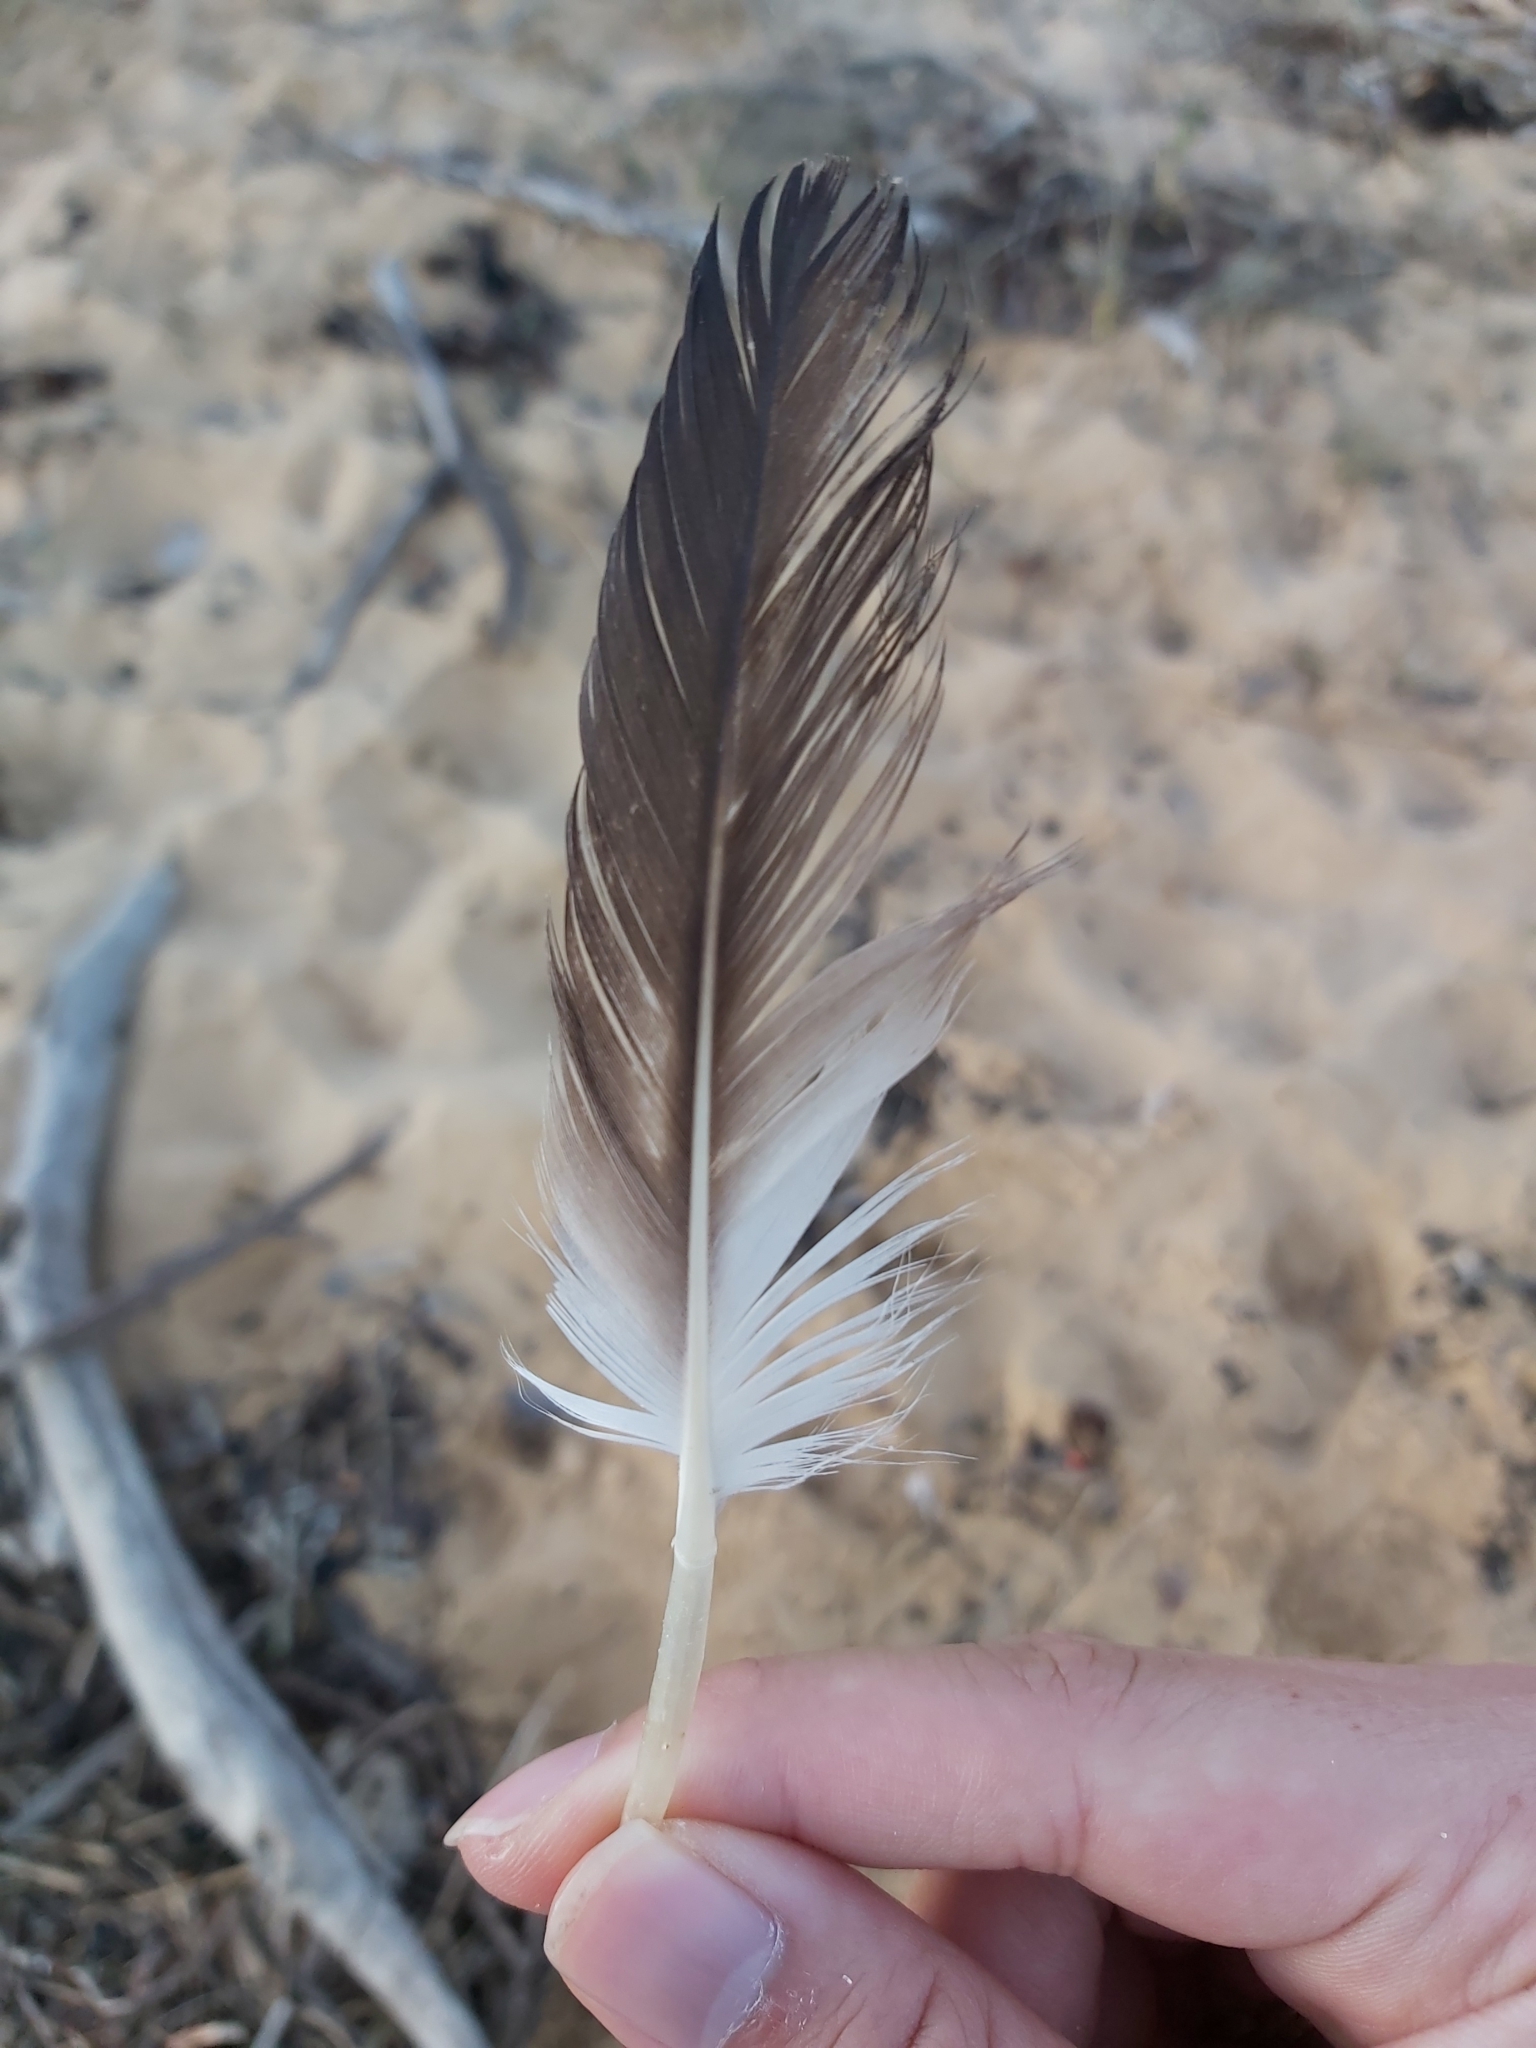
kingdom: Animalia
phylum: Chordata
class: Aves
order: Suliformes
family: Sulidae
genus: Morus
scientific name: Morus serrator
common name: Australasian gannet
